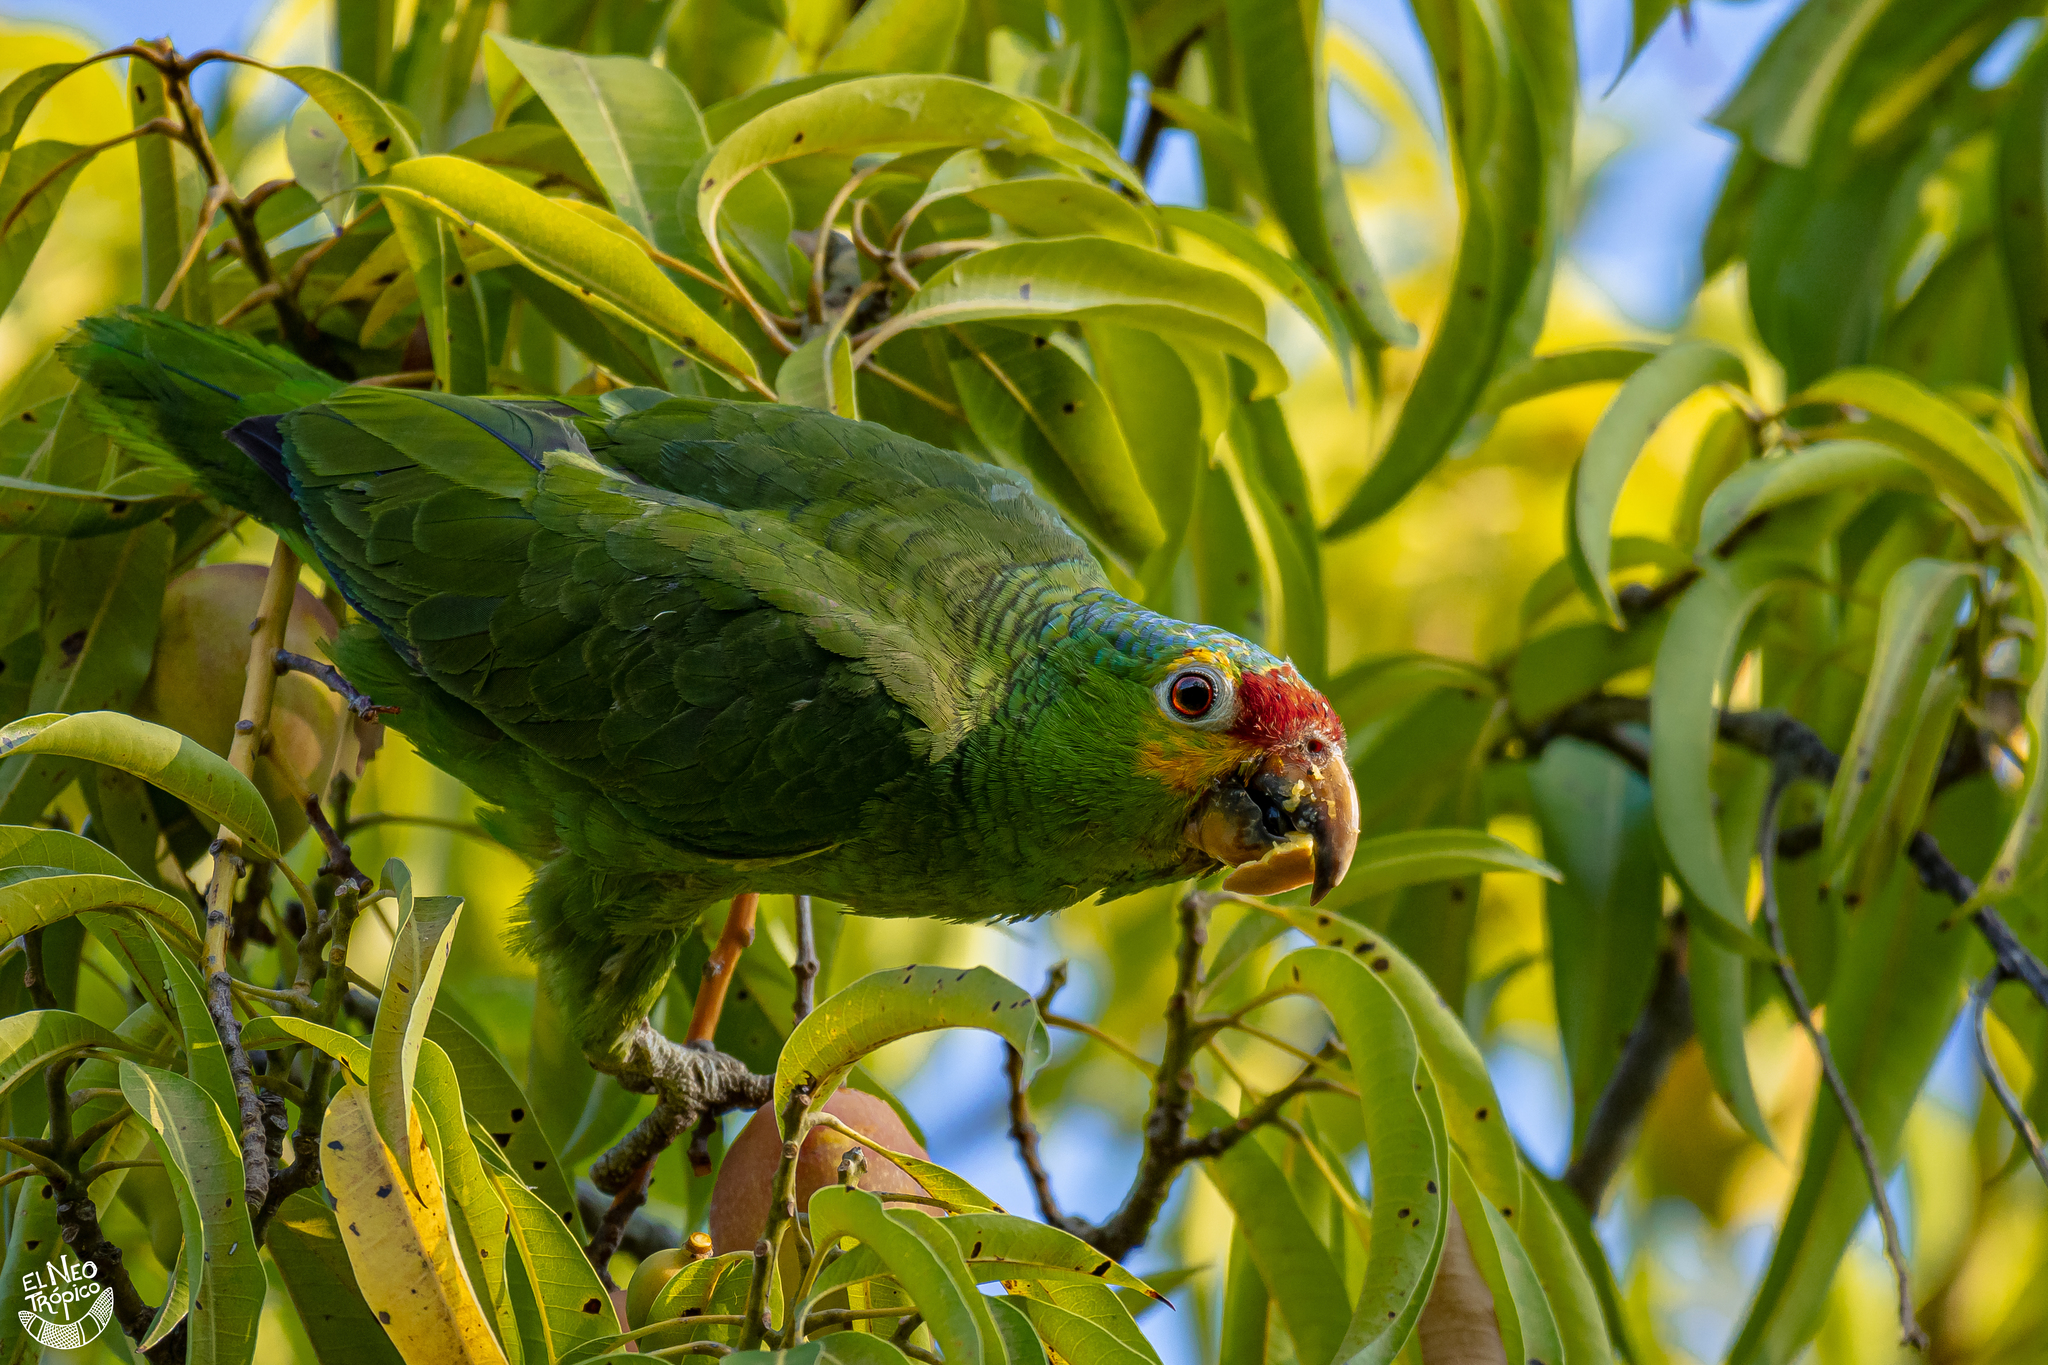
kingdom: Animalia
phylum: Chordata
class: Aves
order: Psittaciformes
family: Psittacidae
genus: Amazona
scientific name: Amazona autumnalis
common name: Red-lored amazon
